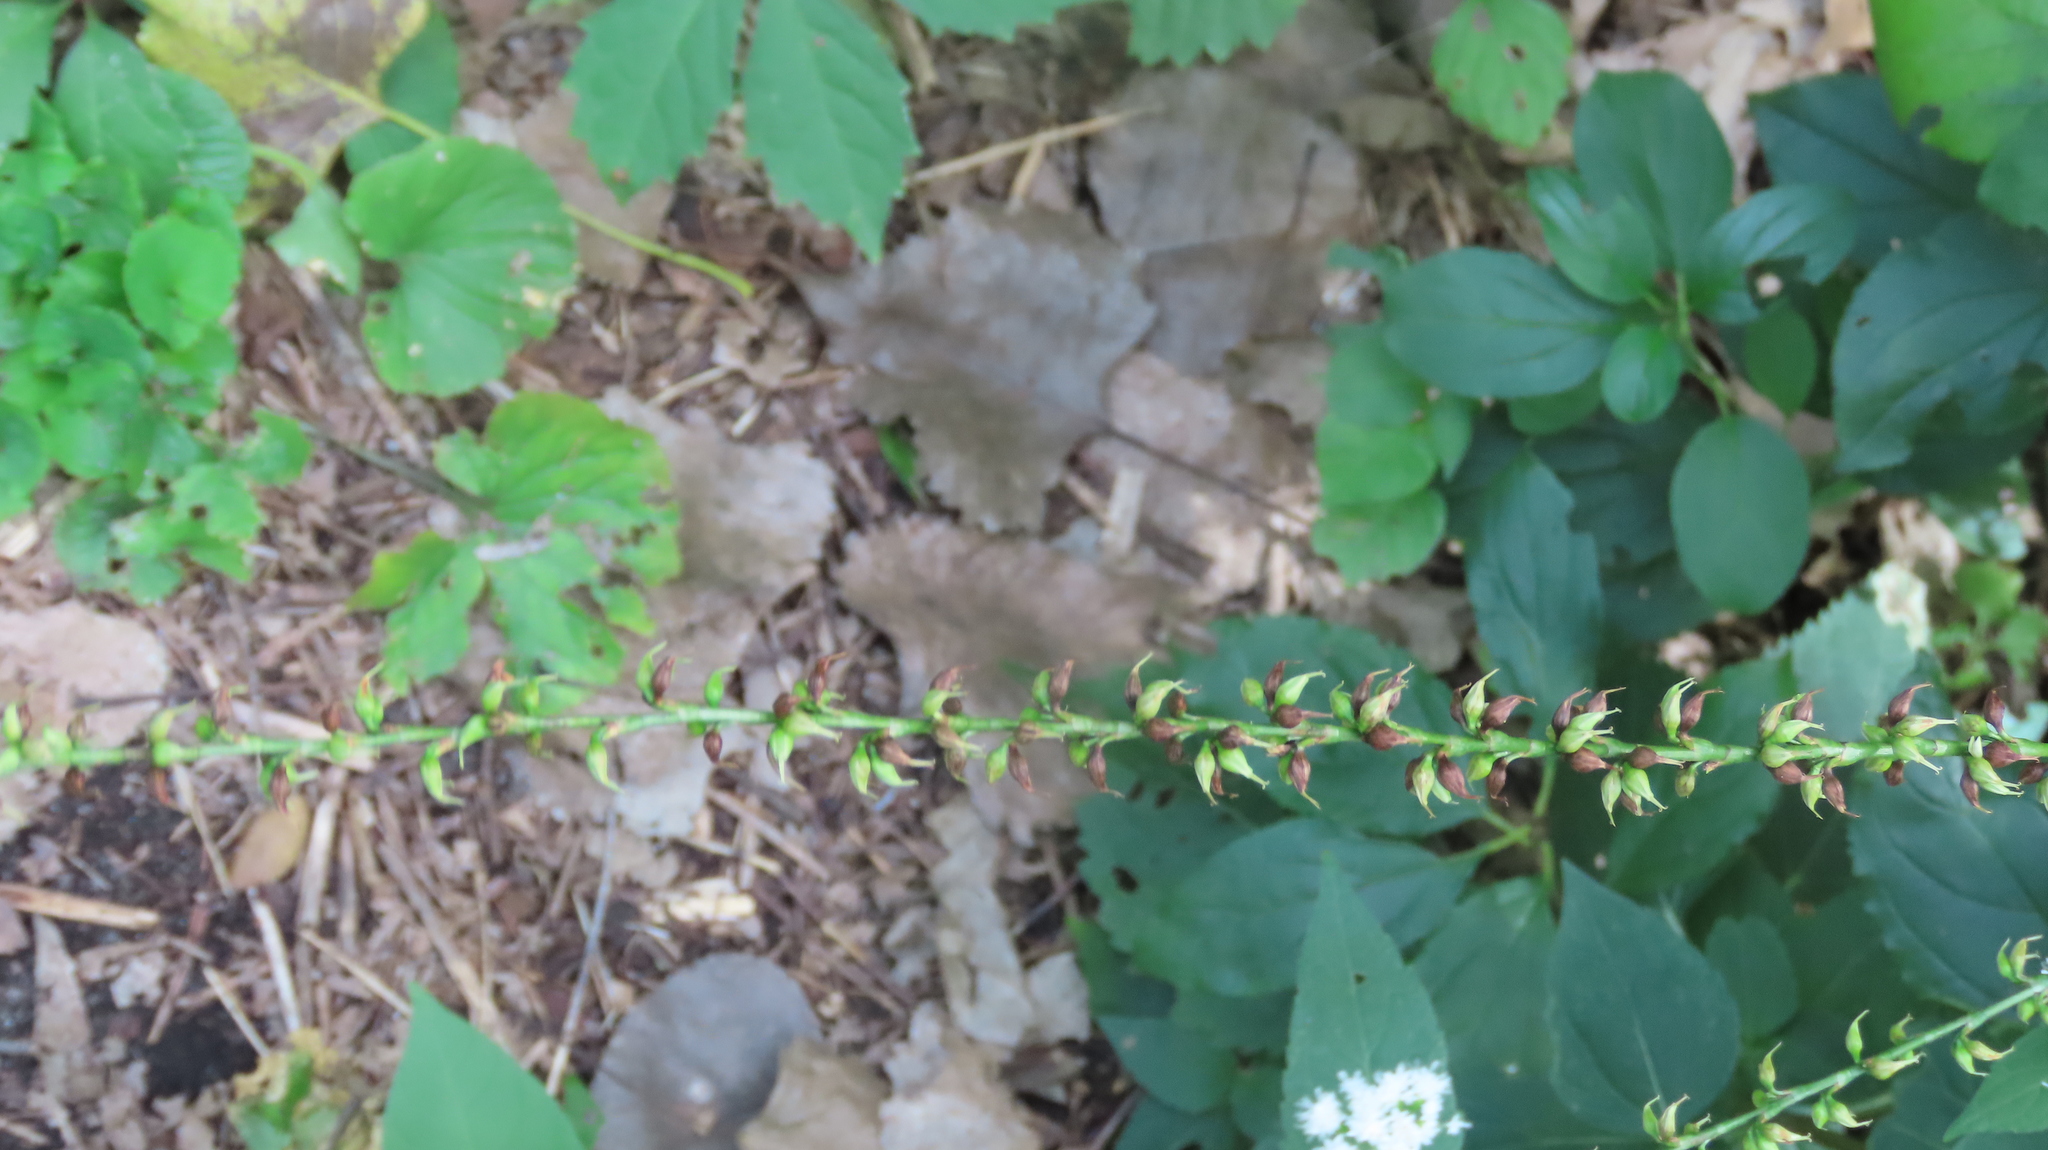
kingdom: Plantae
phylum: Tracheophyta
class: Magnoliopsida
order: Caryophyllales
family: Polygonaceae
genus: Persicaria
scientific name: Persicaria virginiana
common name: Jumpseed
